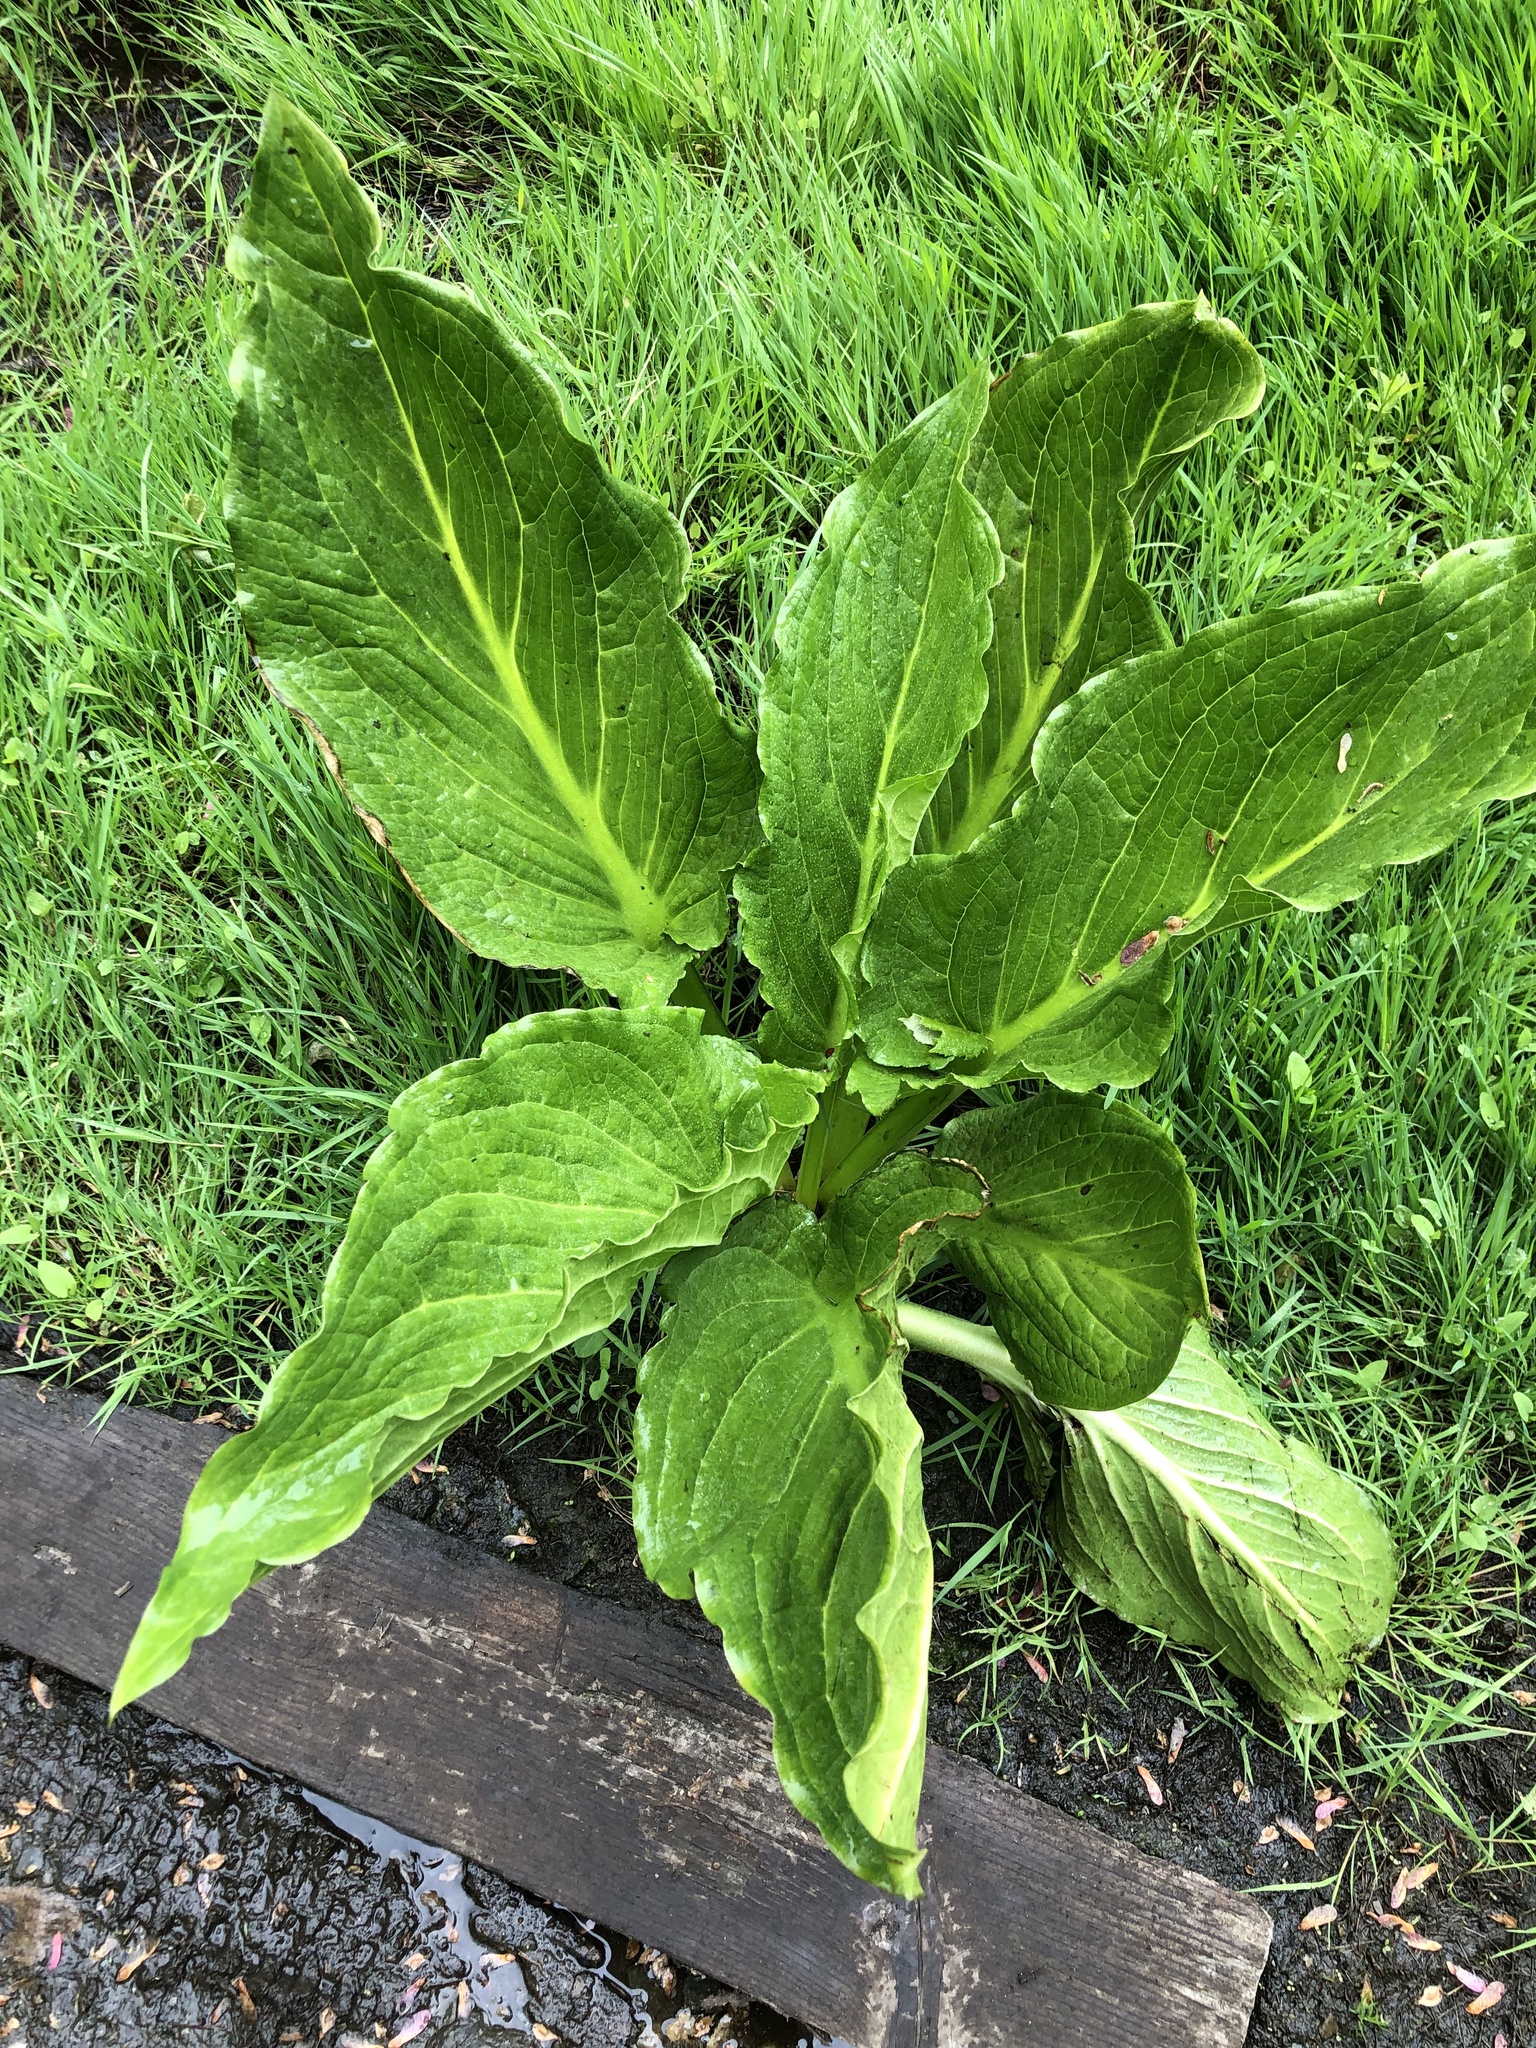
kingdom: Plantae
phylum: Tracheophyta
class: Liliopsida
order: Alismatales
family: Araceae
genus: Symplocarpus
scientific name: Symplocarpus foetidus
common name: Eastern skunk cabbage
